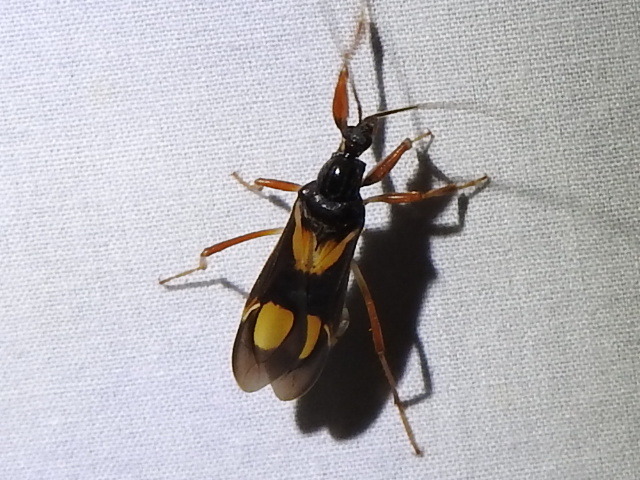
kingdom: Animalia
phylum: Arthropoda
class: Insecta
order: Hemiptera
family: Reduviidae
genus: Rasahus
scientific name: Rasahus hamatus
